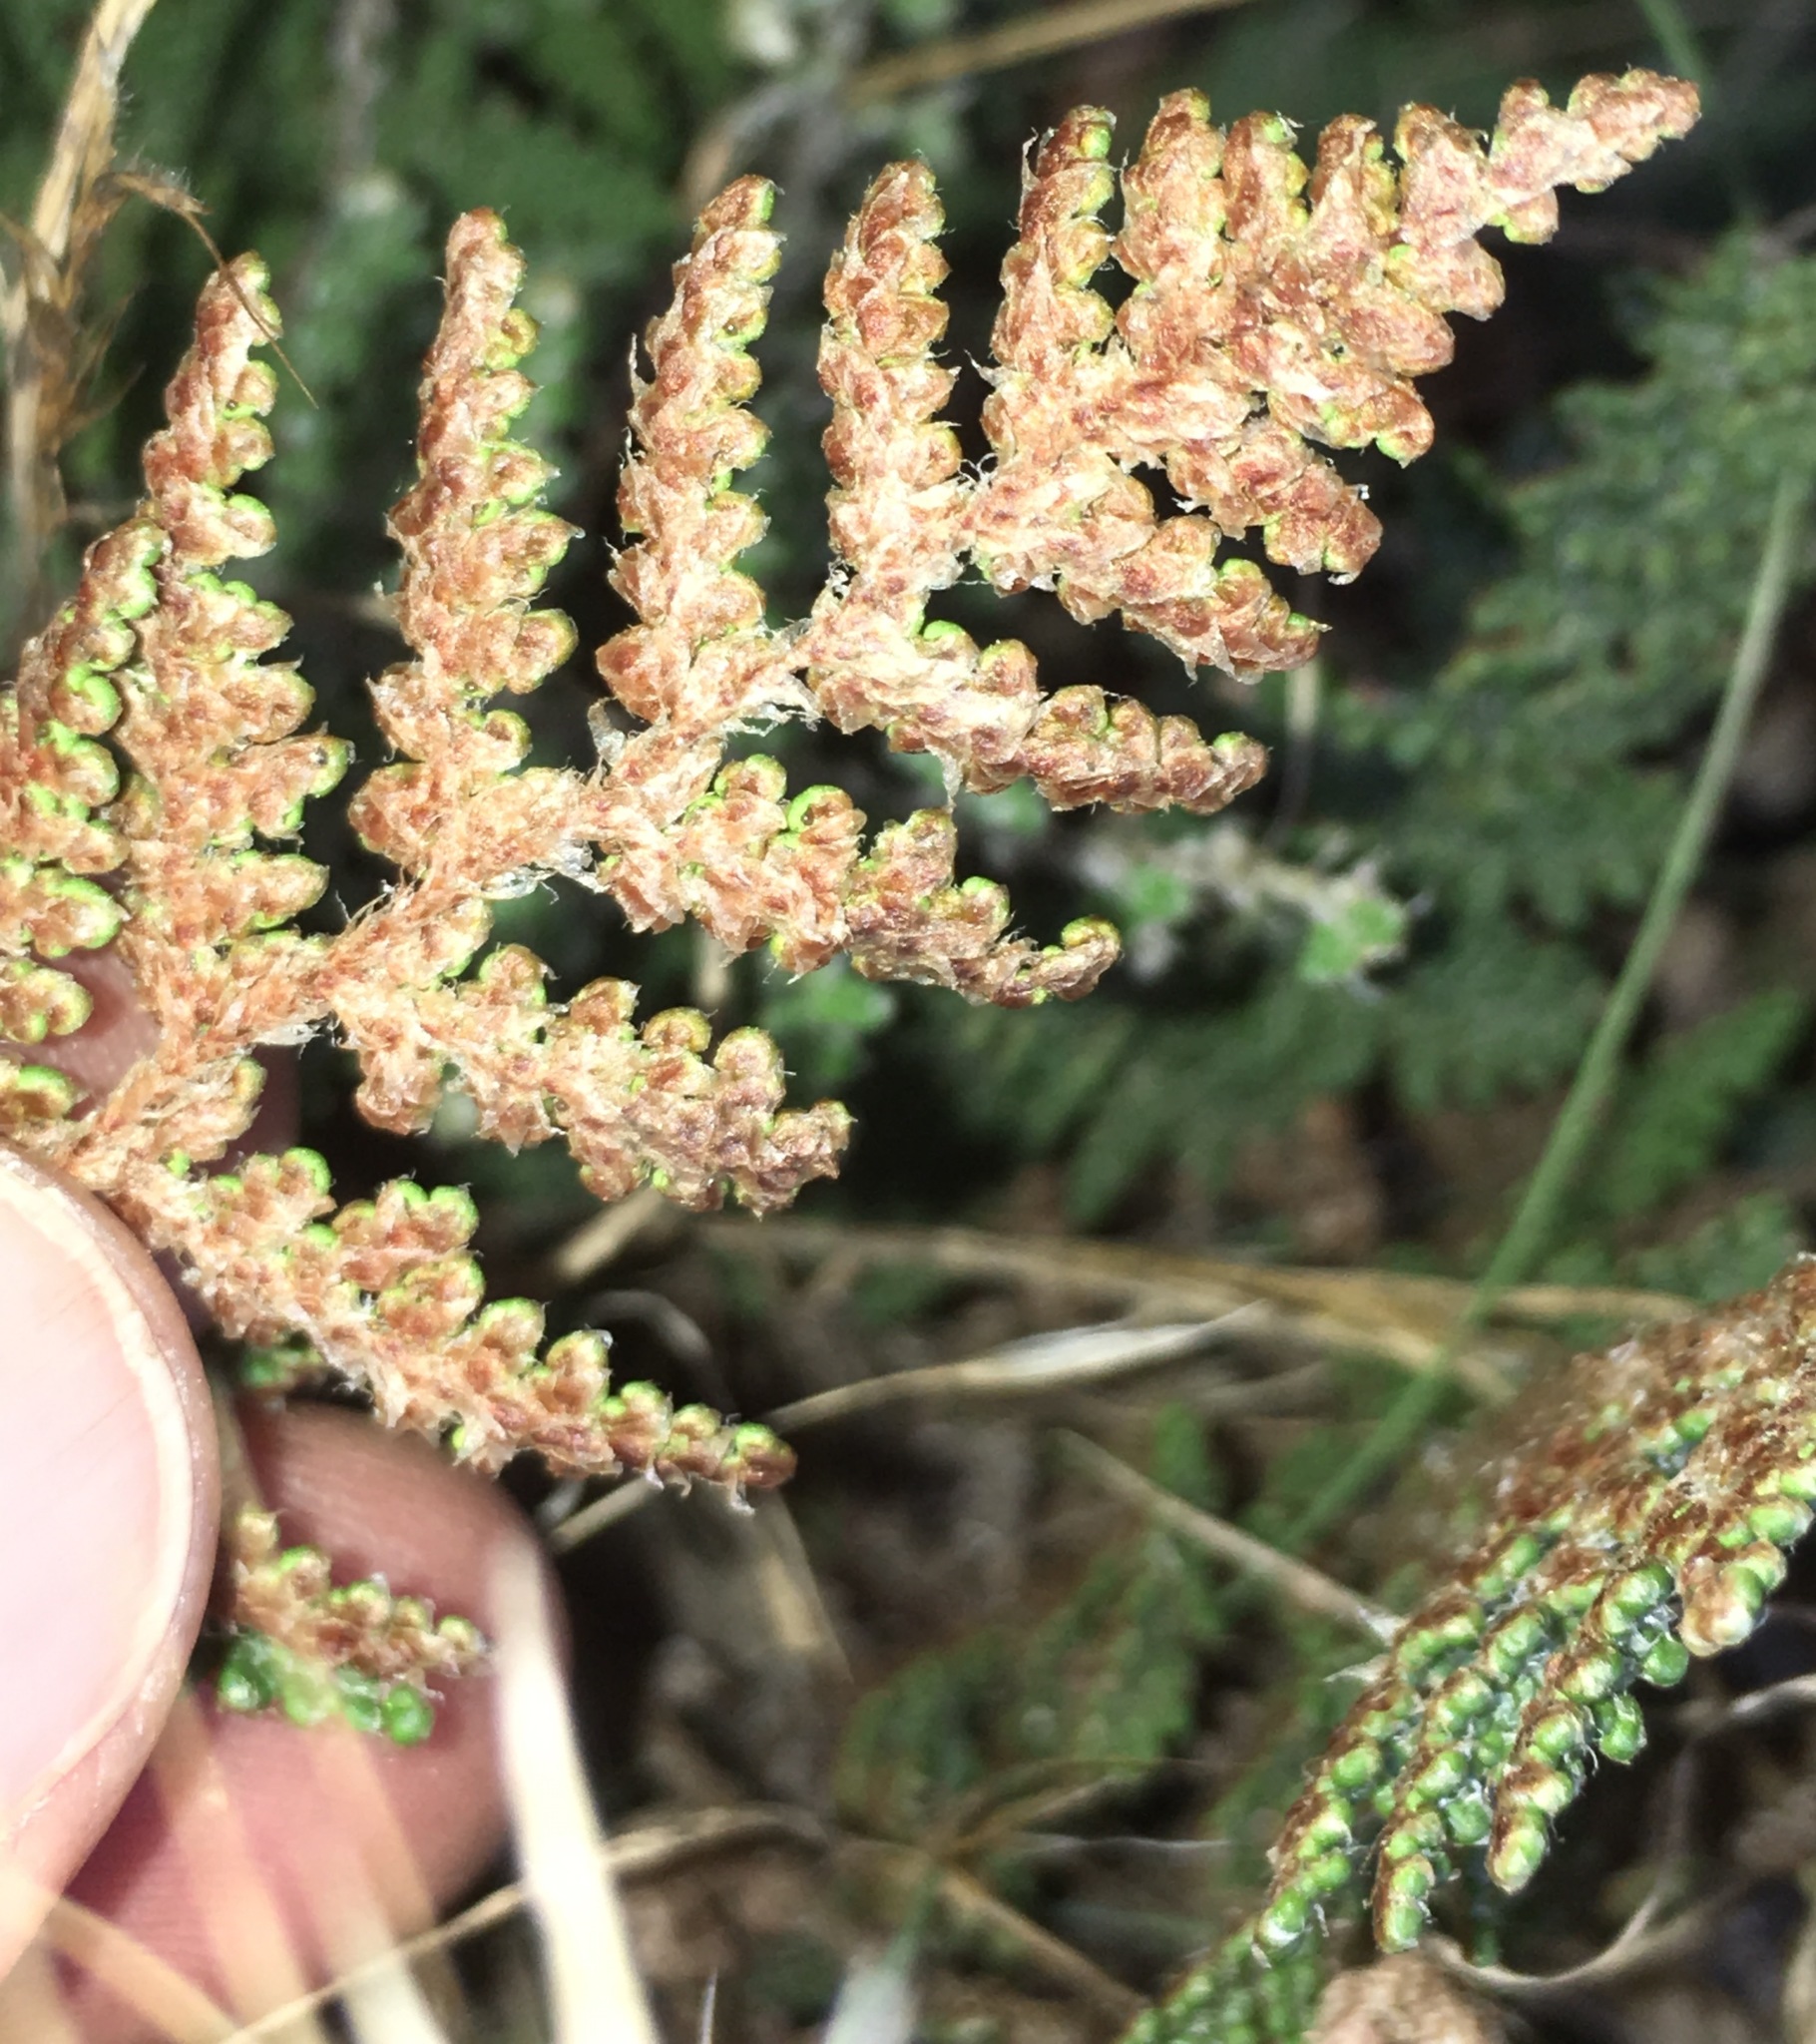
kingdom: Plantae
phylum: Tracheophyta
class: Polypodiopsida
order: Polypodiales
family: Pteridaceae
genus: Myriopteris
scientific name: Myriopteris covillei
